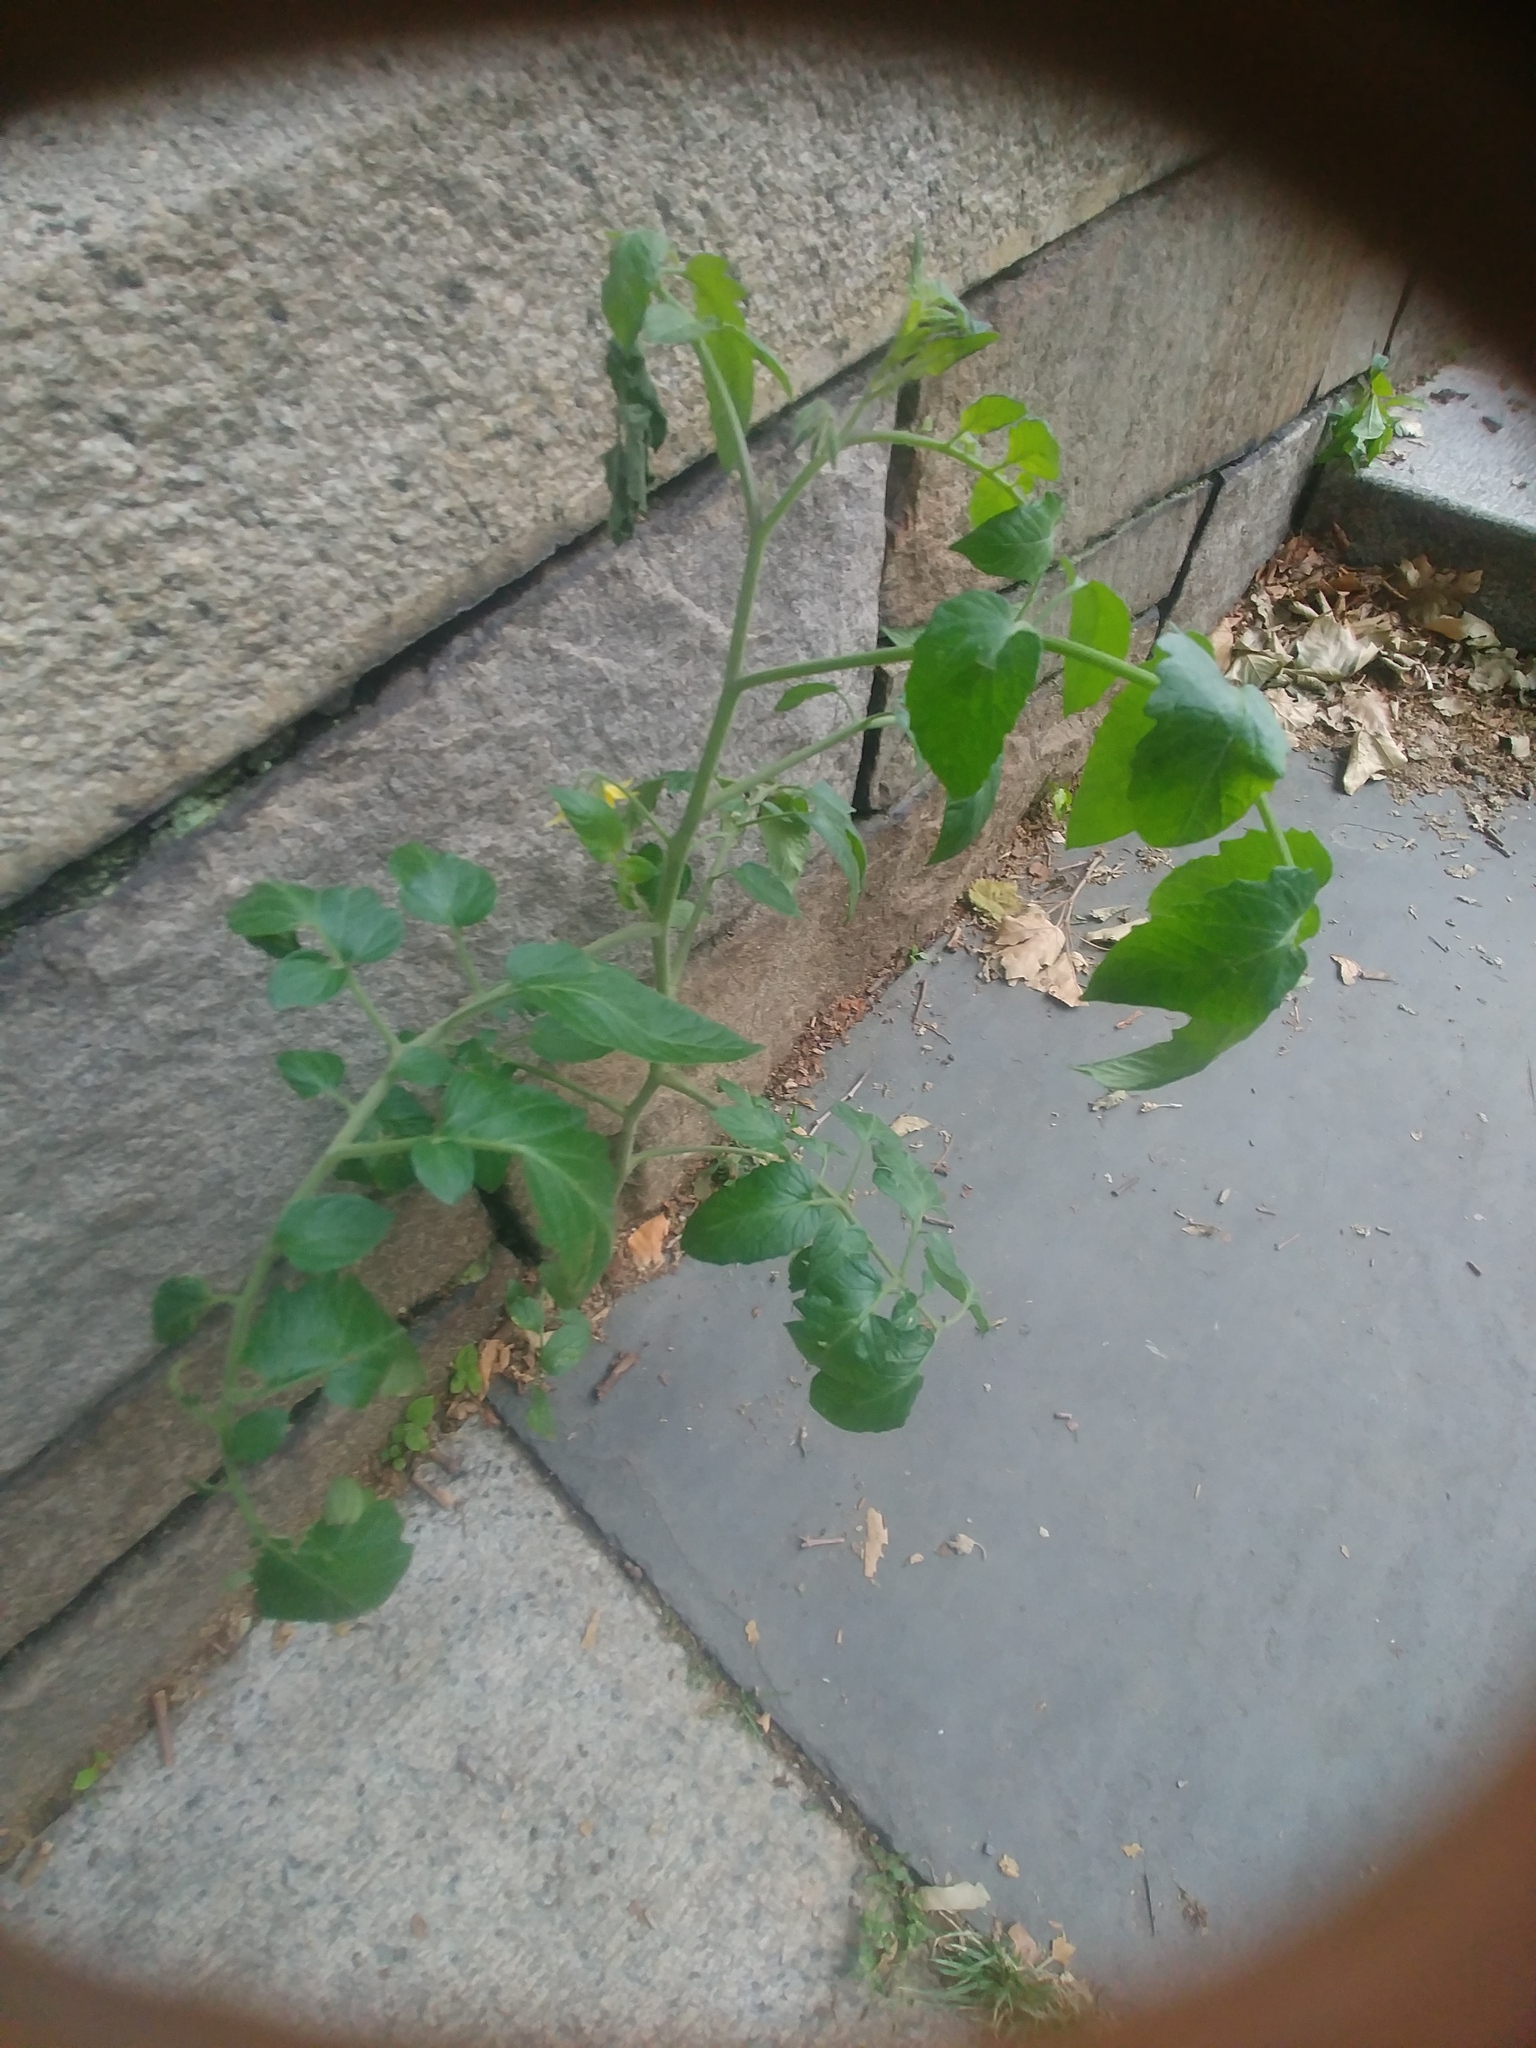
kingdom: Plantae
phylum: Tracheophyta
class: Magnoliopsida
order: Solanales
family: Solanaceae
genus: Solanum
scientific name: Solanum lycopersicum
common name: Garden tomato
